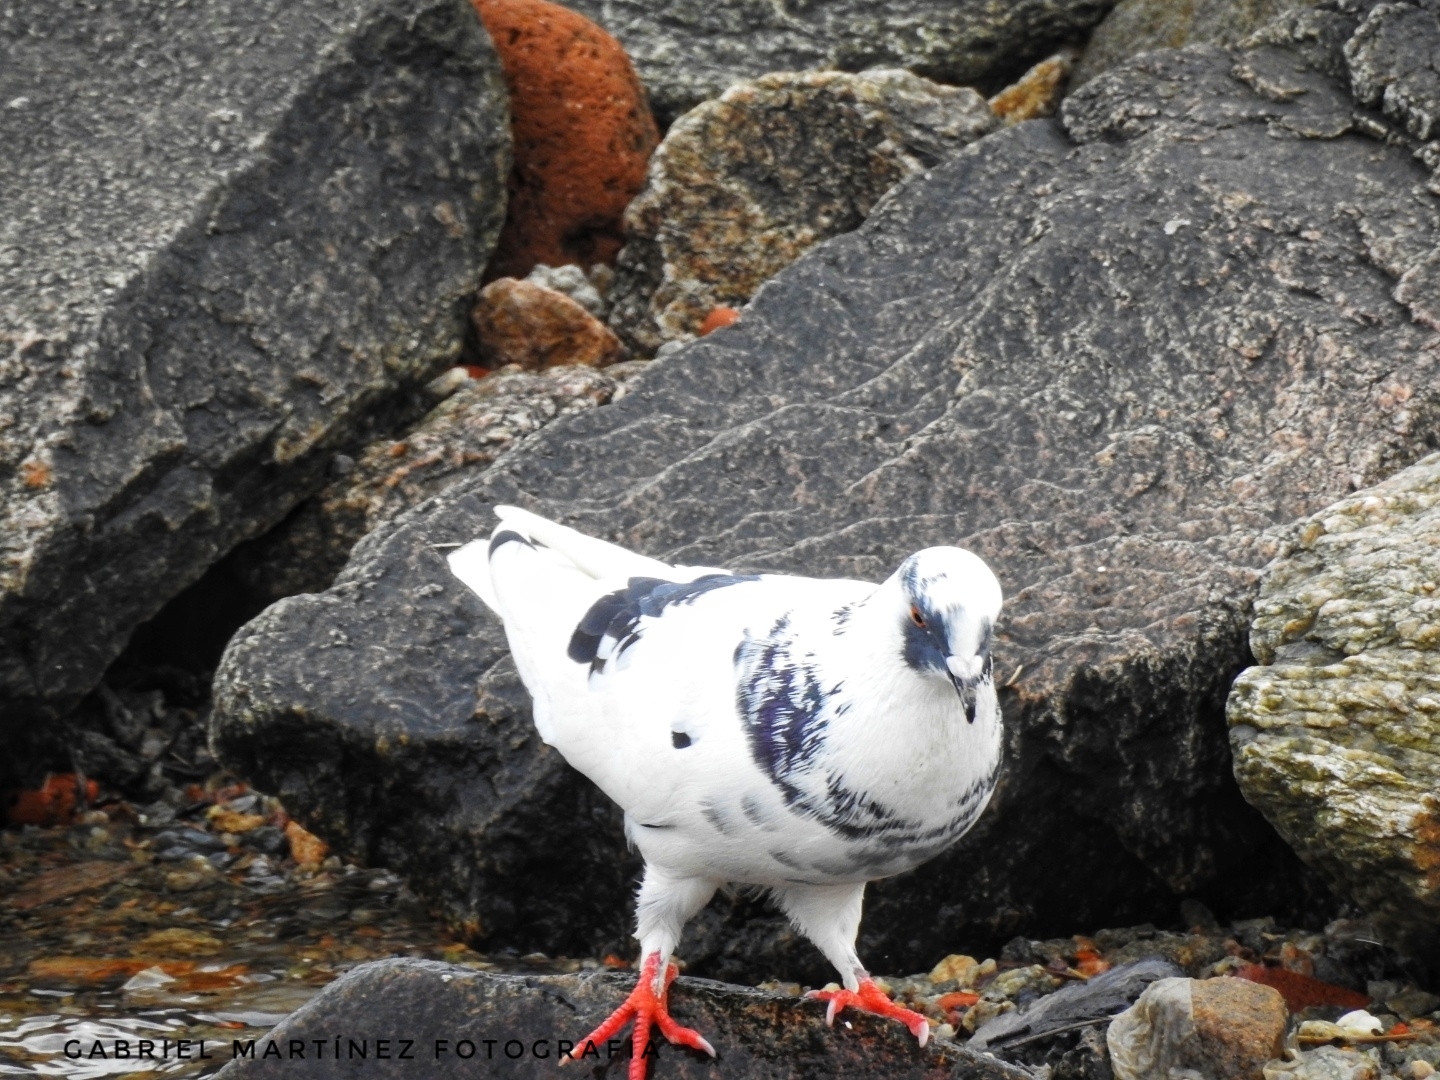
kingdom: Animalia
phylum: Chordata
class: Aves
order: Columbiformes
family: Columbidae
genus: Columba
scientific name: Columba livia
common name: Rock pigeon
